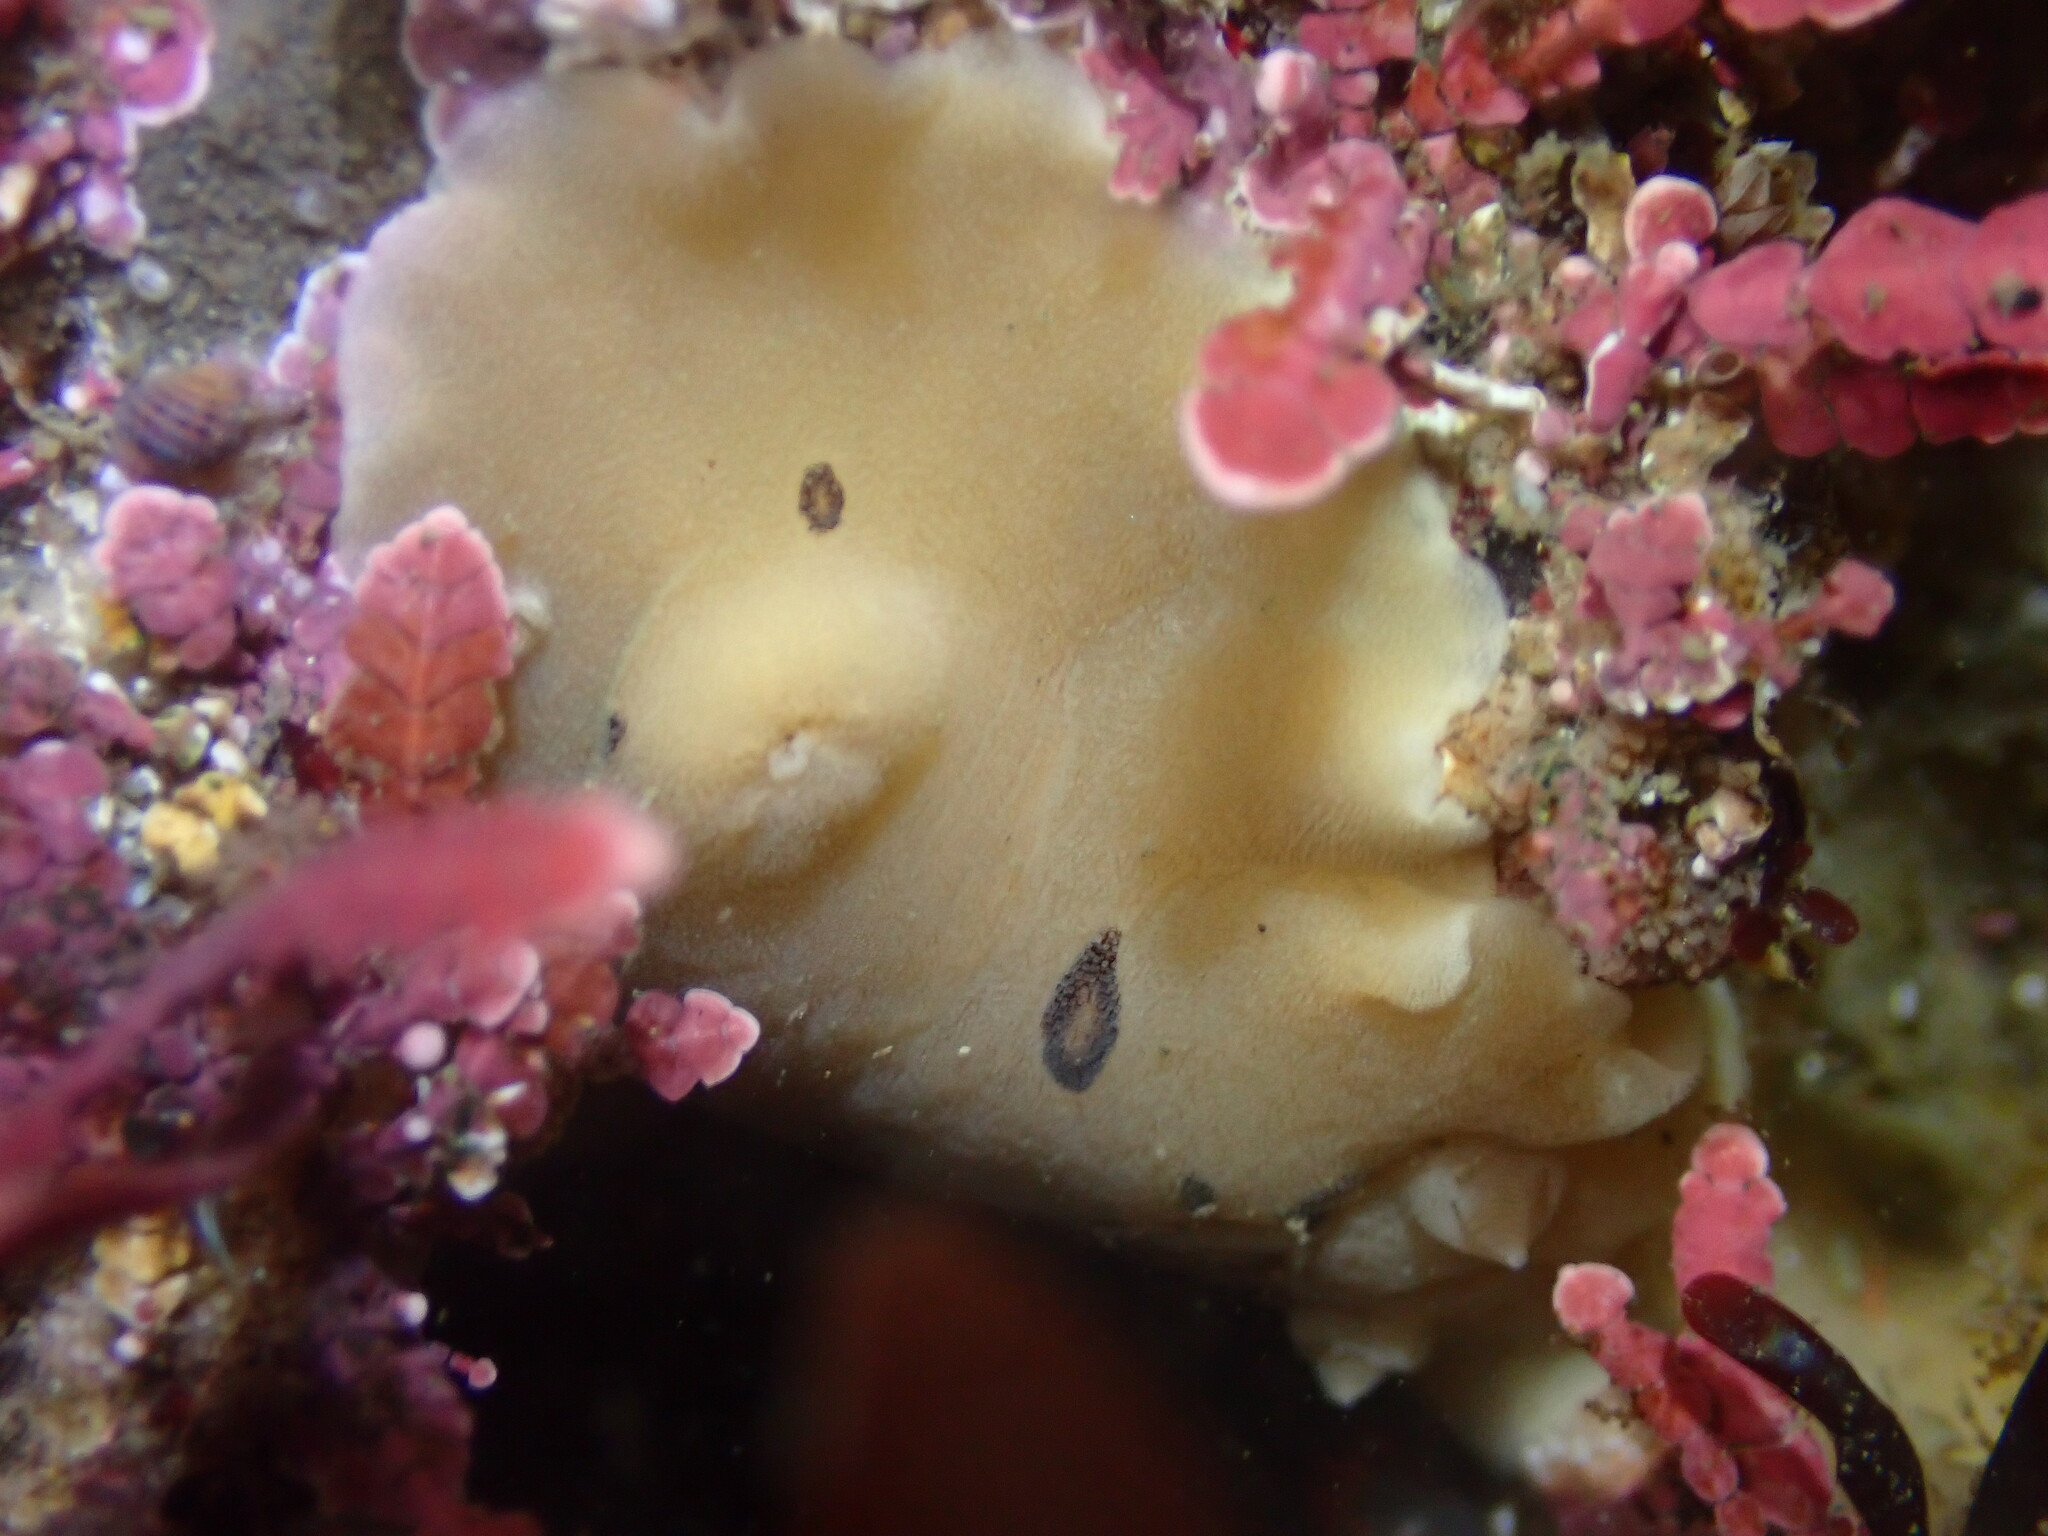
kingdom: Animalia
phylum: Mollusca
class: Gastropoda
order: Nudibranchia
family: Discodorididae
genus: Diaulula
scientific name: Diaulula sandiegensis
